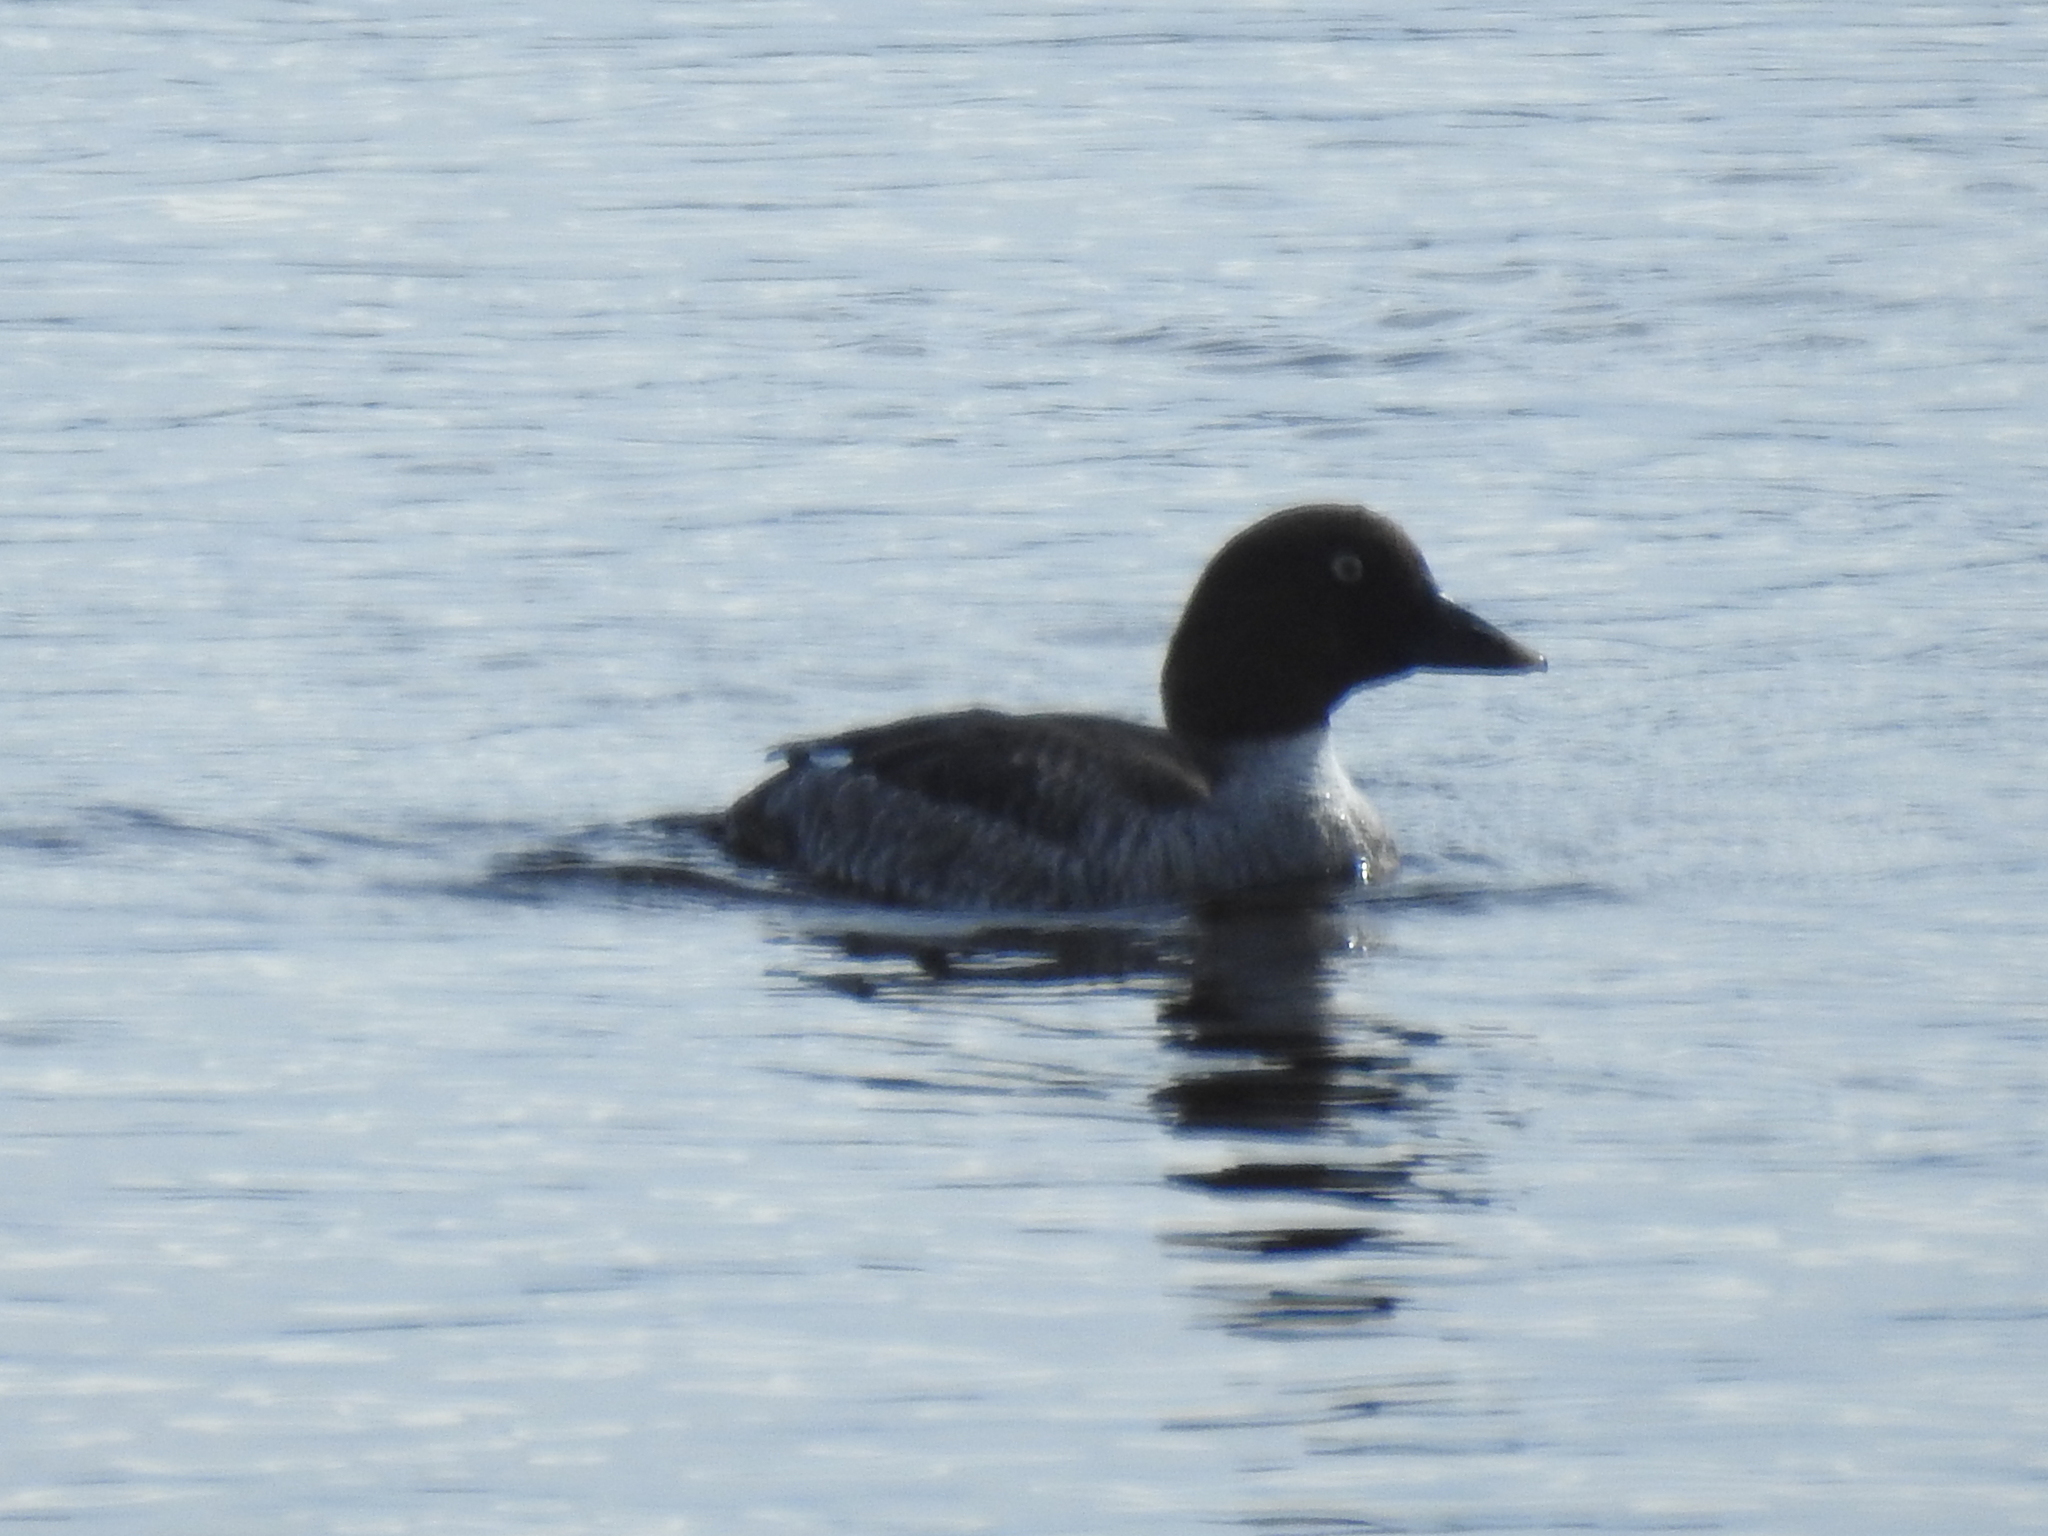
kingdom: Animalia
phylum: Chordata
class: Aves
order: Anseriformes
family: Anatidae
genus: Bucephala
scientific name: Bucephala clangula
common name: Common goldeneye
